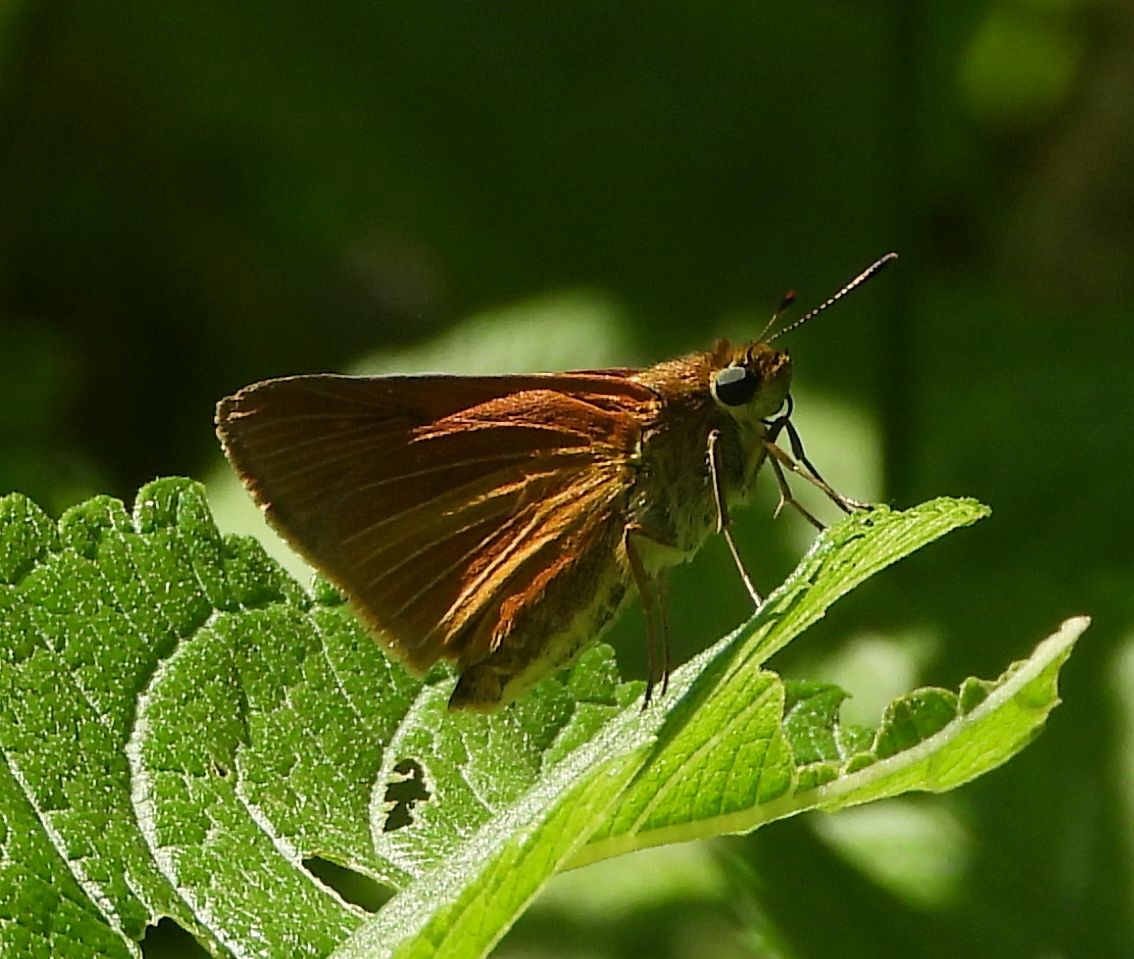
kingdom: Animalia
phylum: Arthropoda
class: Insecta
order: Lepidoptera
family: Hesperiidae
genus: Euphyes
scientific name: Euphyes dion
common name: Dion skipper
